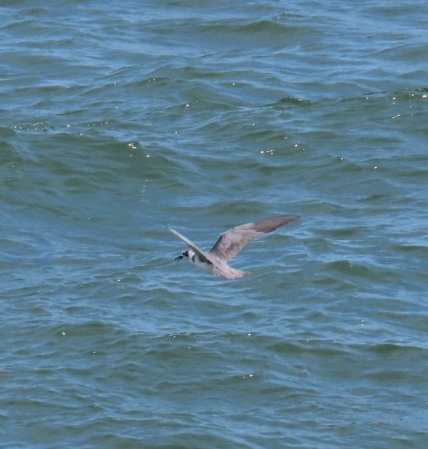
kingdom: Animalia
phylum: Chordata
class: Aves
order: Charadriiformes
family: Laridae
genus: Chlidonias
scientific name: Chlidonias niger
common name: Black tern
